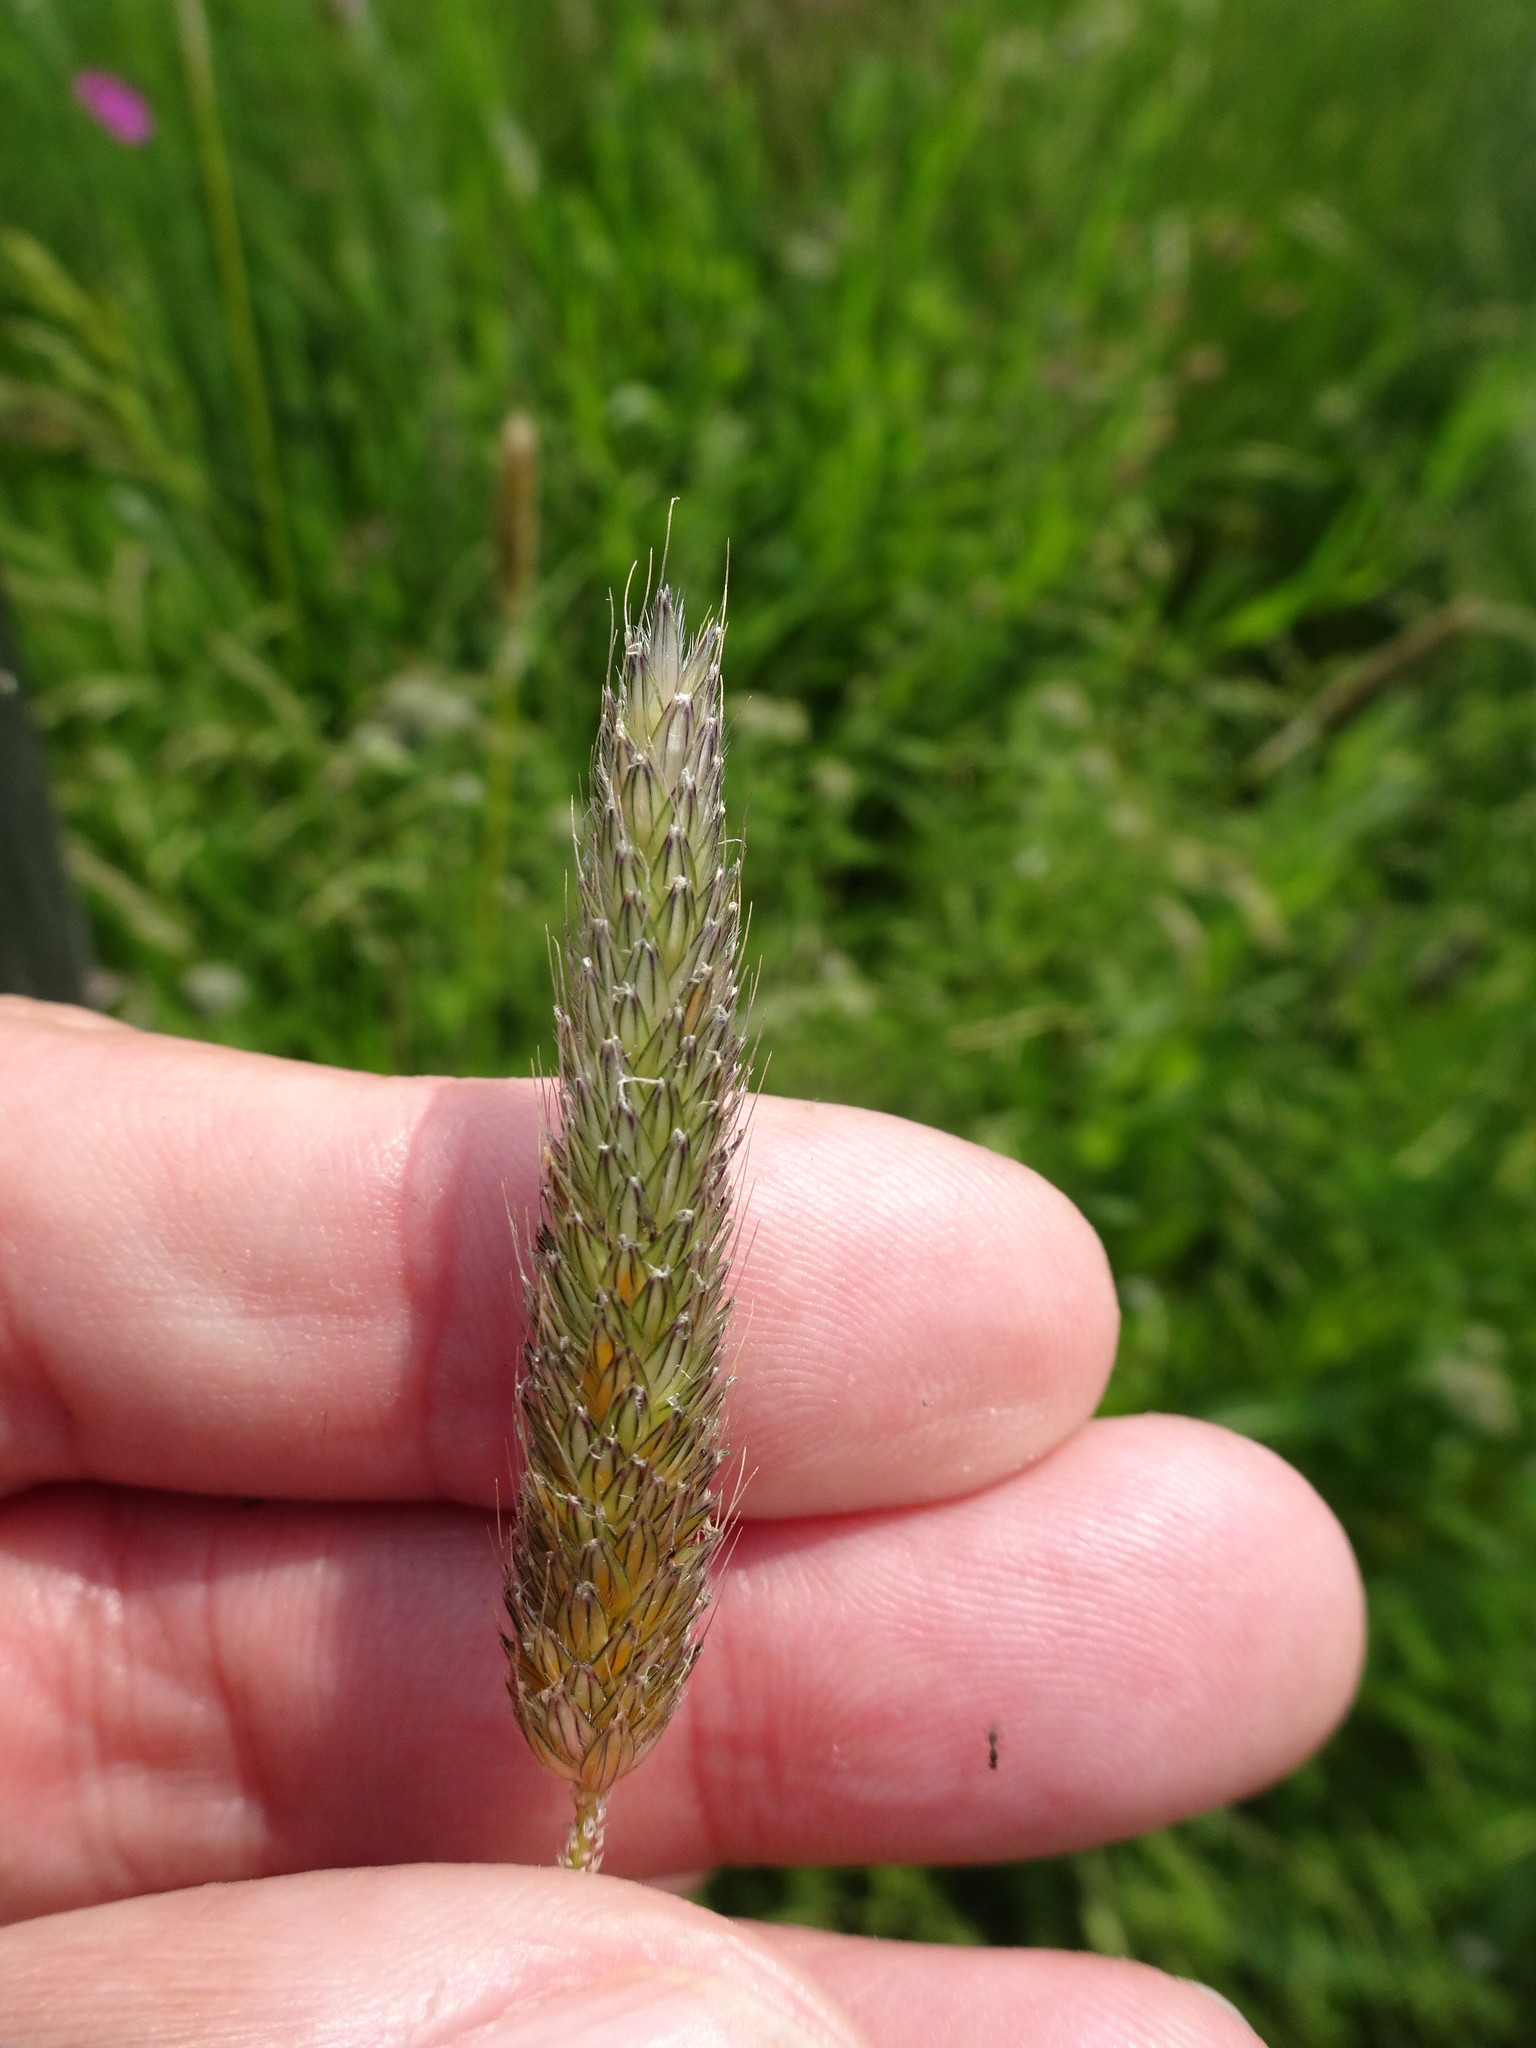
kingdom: Plantae
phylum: Tracheophyta
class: Liliopsida
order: Poales
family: Poaceae
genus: Alopecurus
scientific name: Alopecurus pratensis
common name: Meadow foxtail
